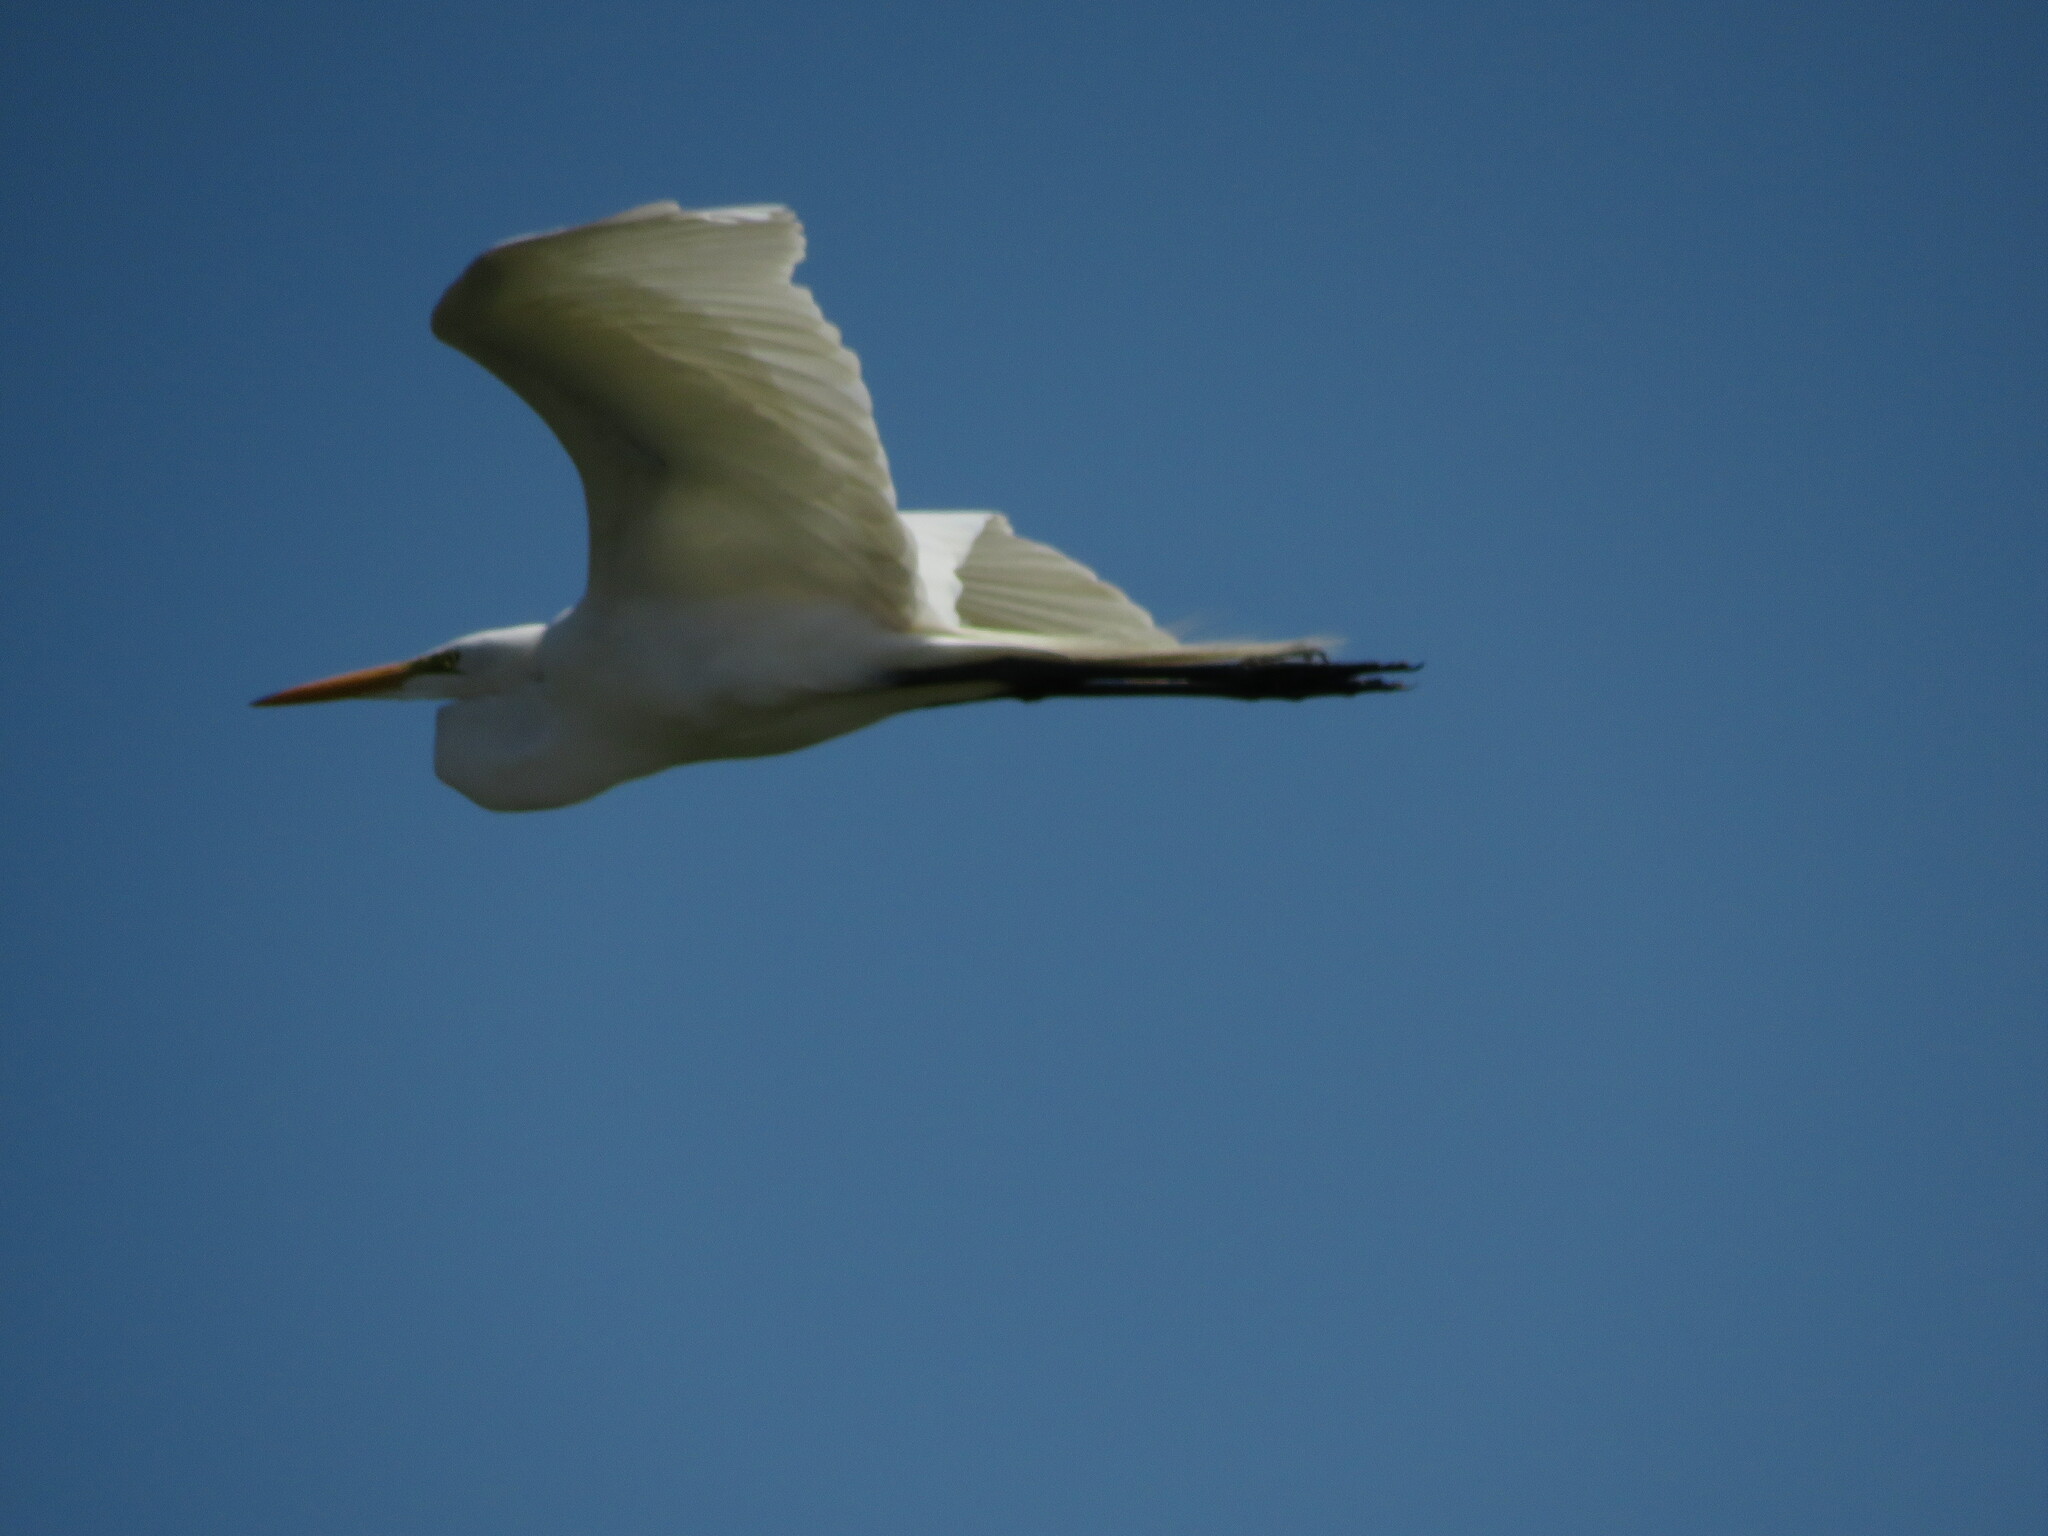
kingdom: Animalia
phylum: Chordata
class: Aves
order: Pelecaniformes
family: Ardeidae
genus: Ardea
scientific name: Ardea alba
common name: Great egret
